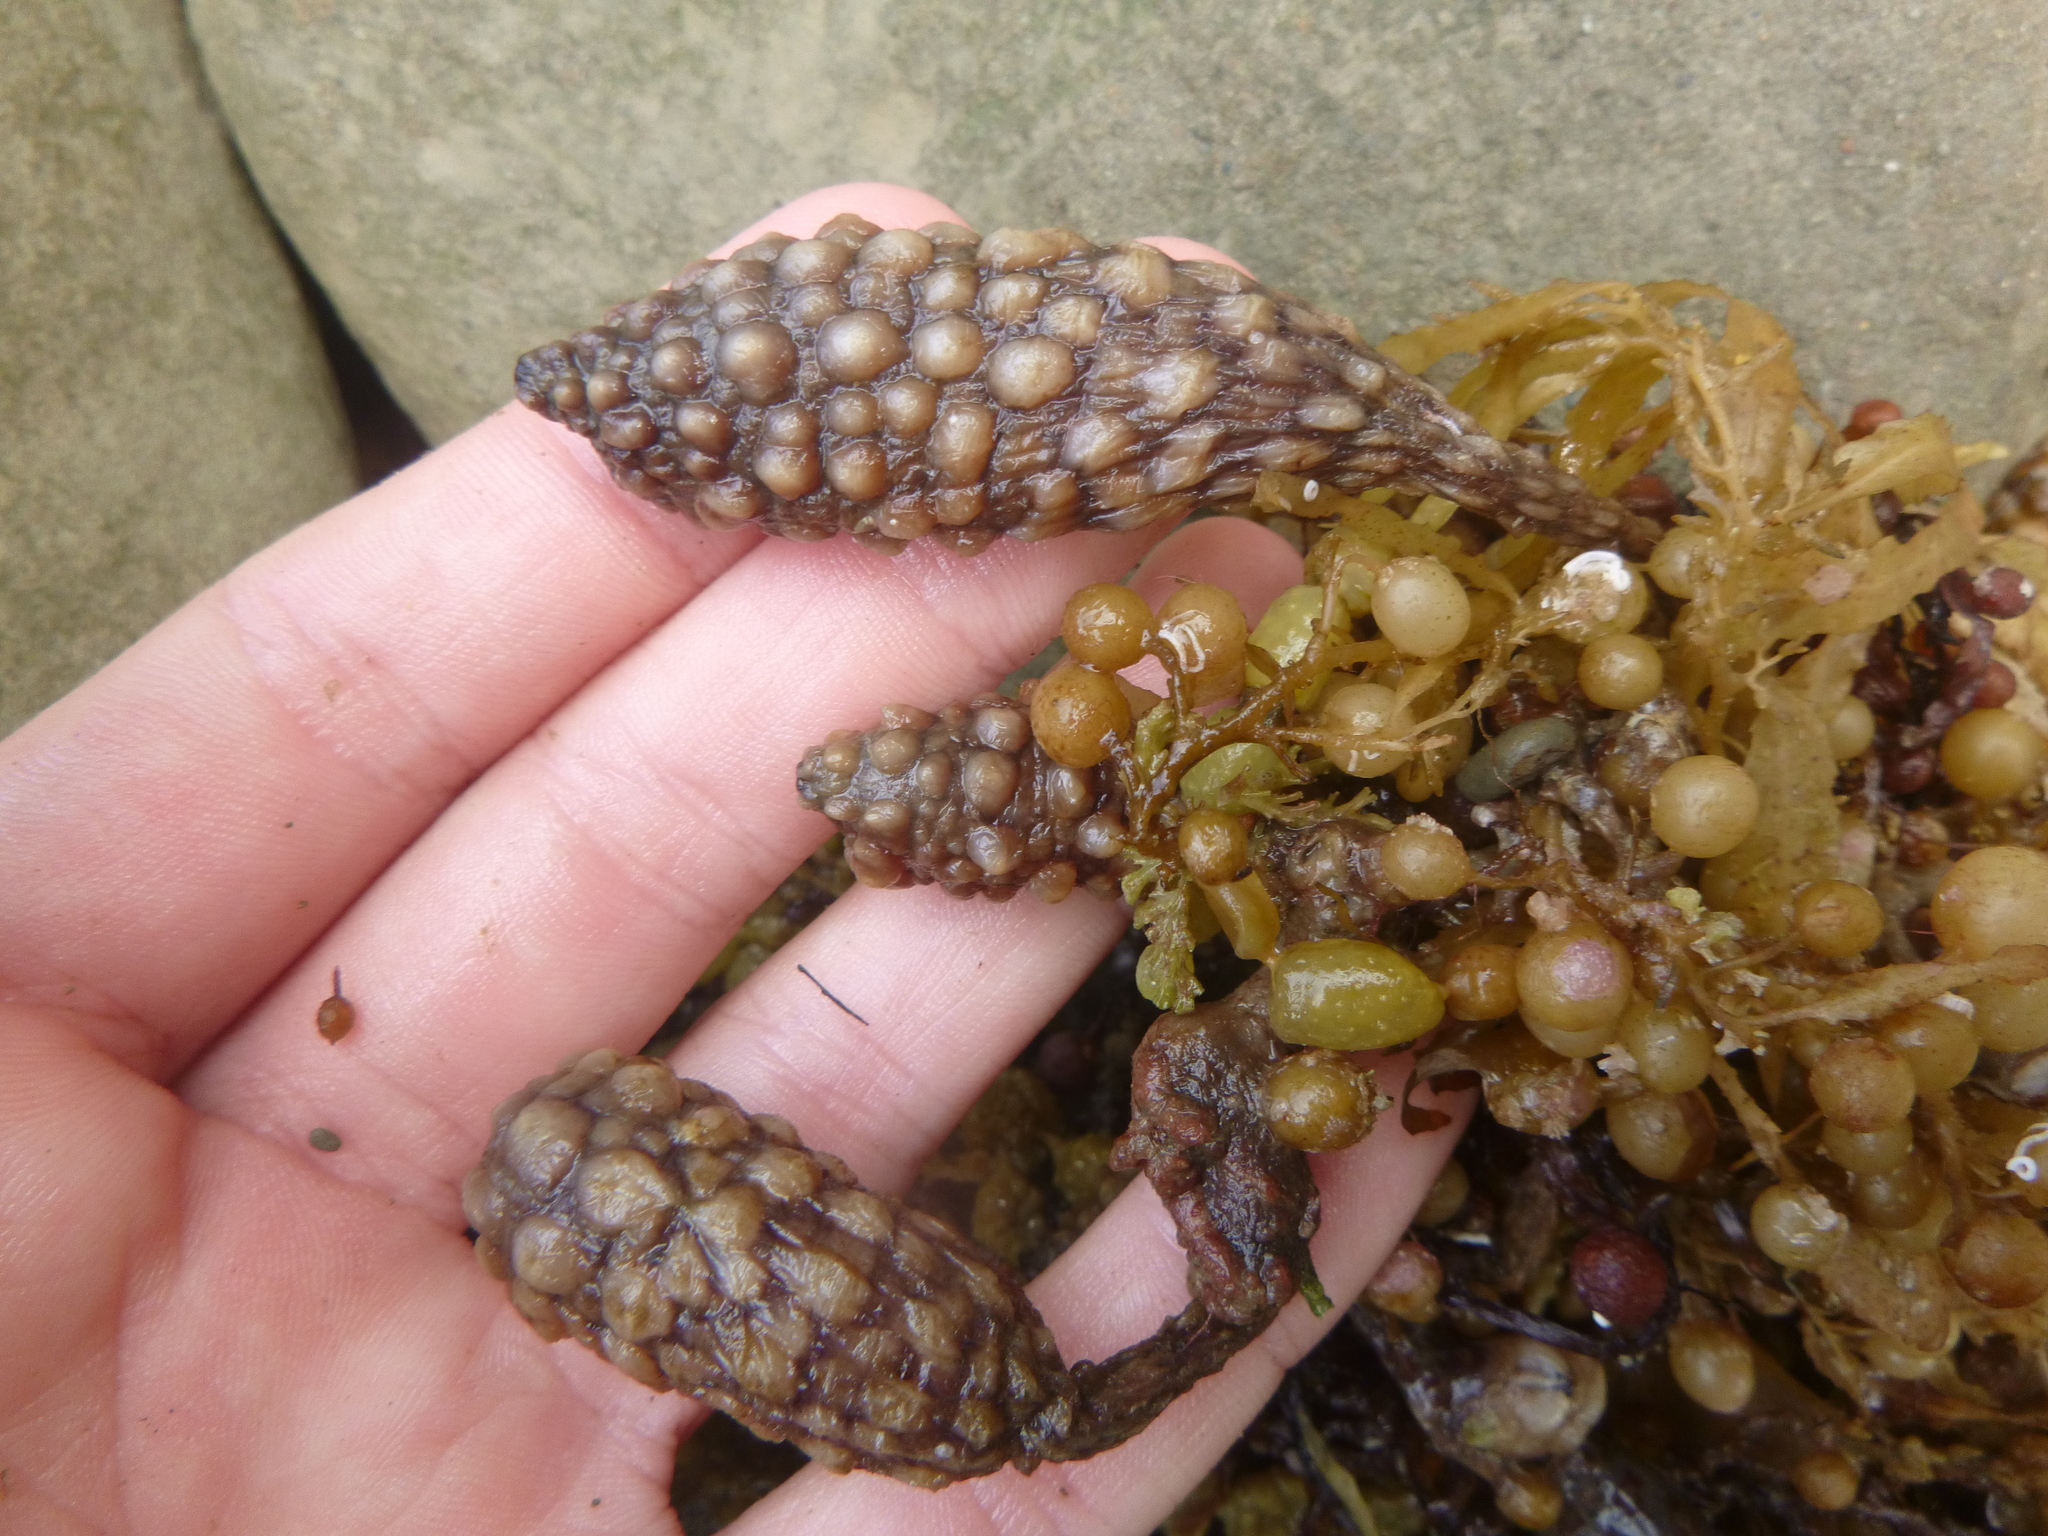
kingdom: Animalia
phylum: Chordata
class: Ascidiacea
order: Stolidobranchia
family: Styelidae
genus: Styela
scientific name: Styela clava
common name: Leathery sea squirt
